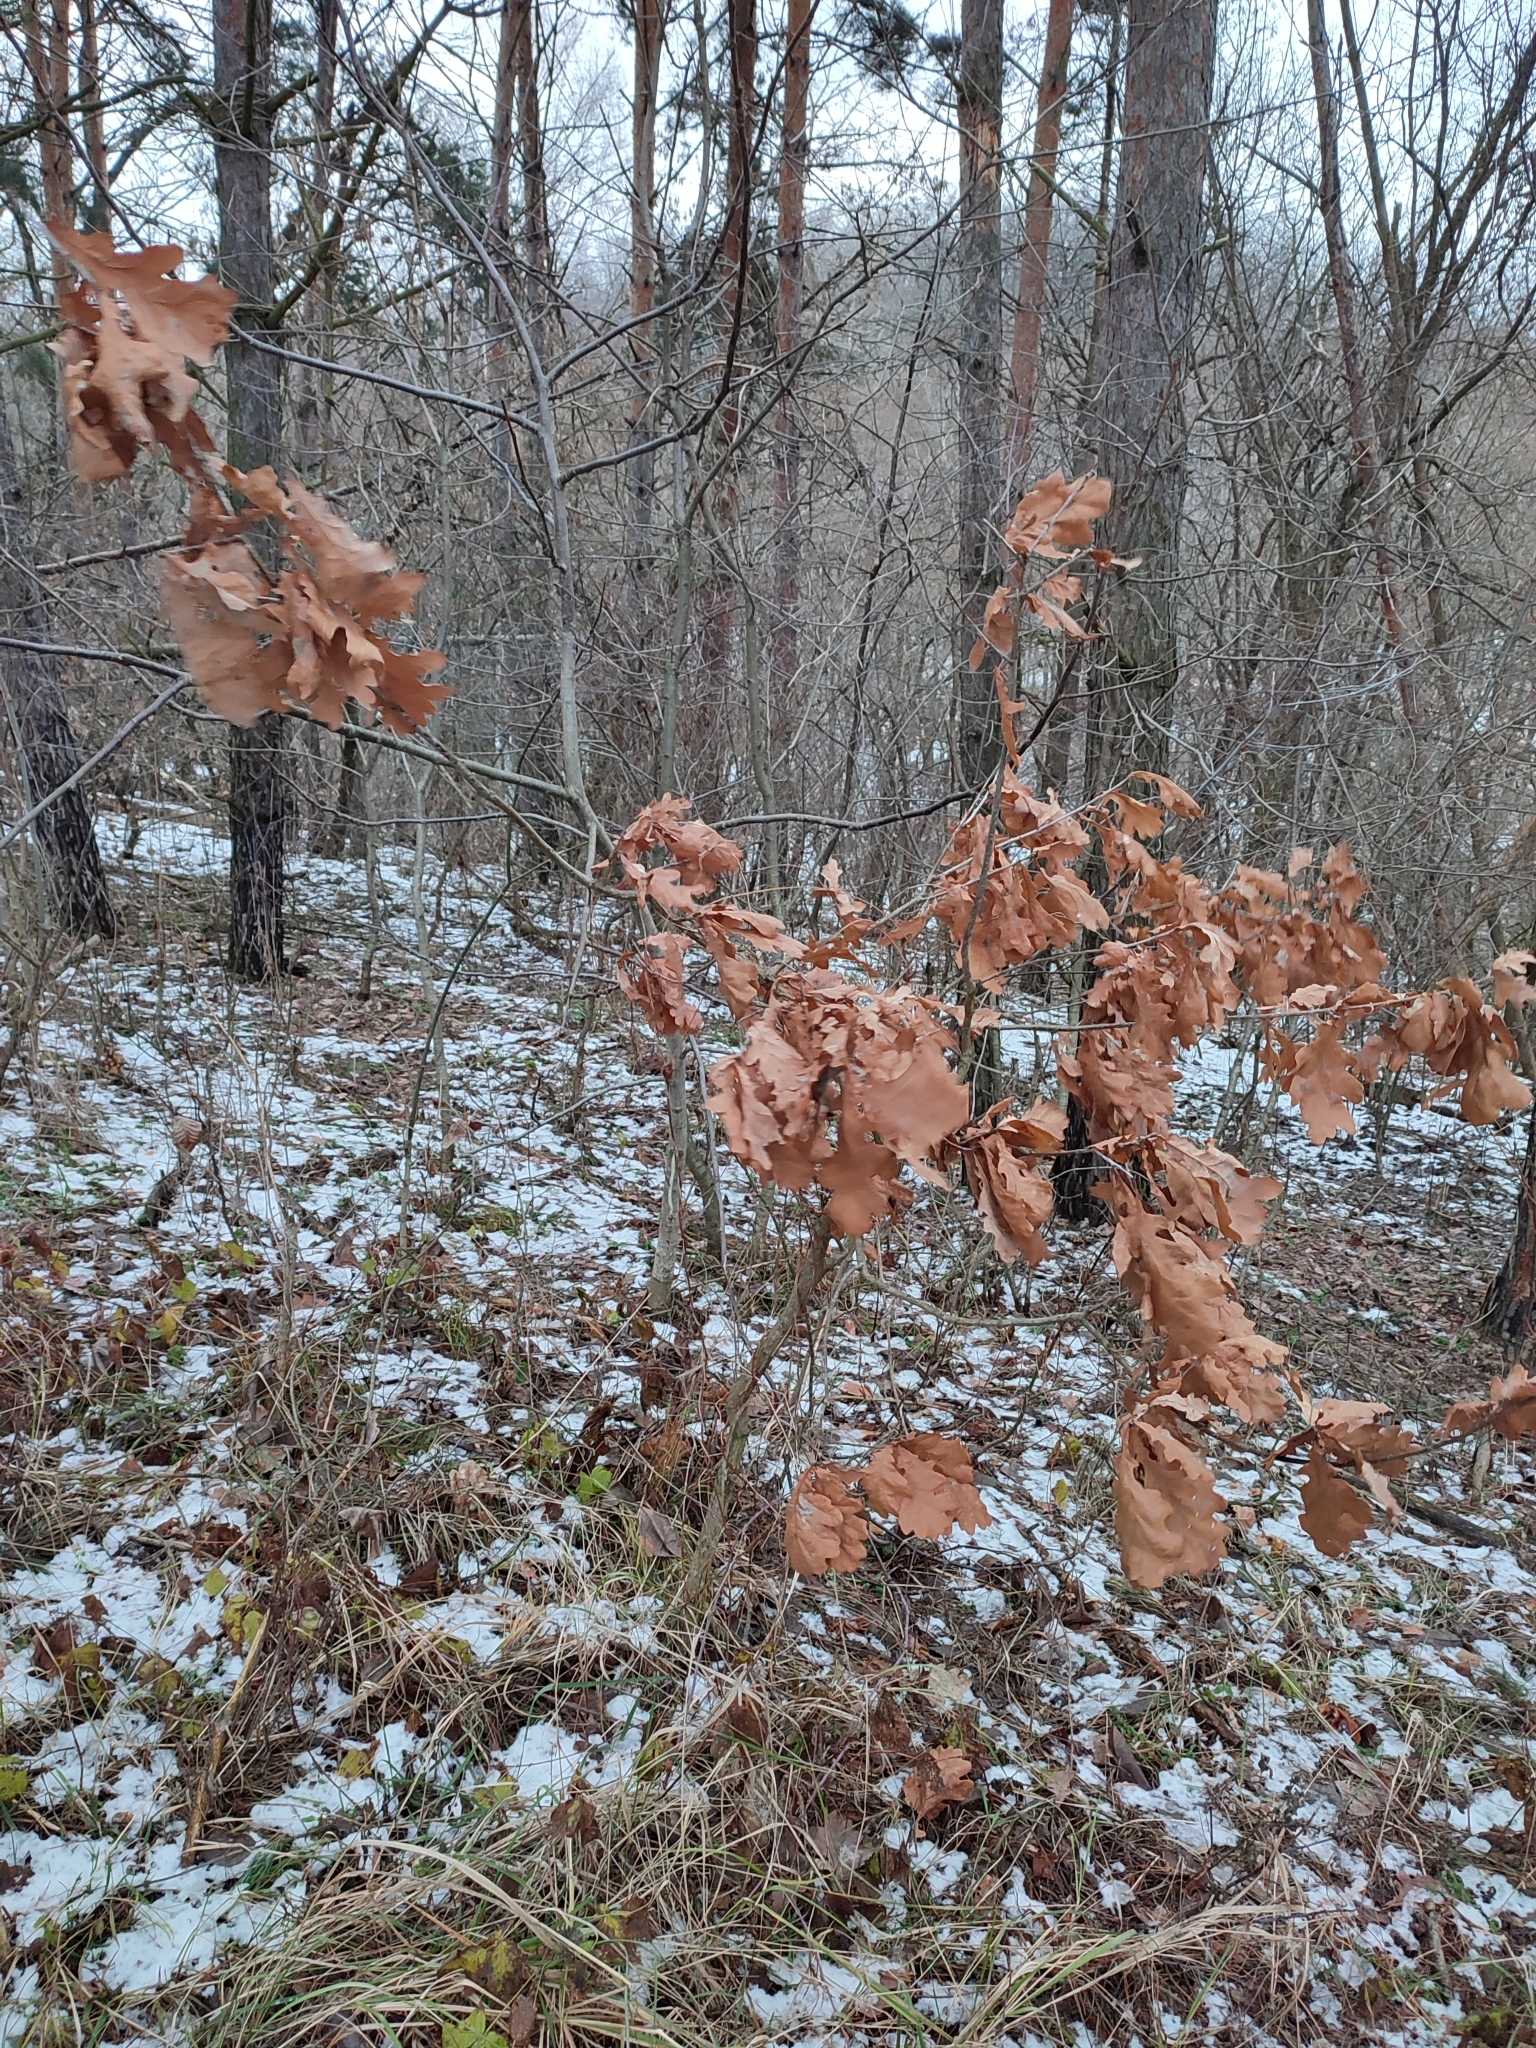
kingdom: Plantae
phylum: Tracheophyta
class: Magnoliopsida
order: Fagales
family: Fagaceae
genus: Quercus
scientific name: Quercus robur
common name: Pedunculate oak
